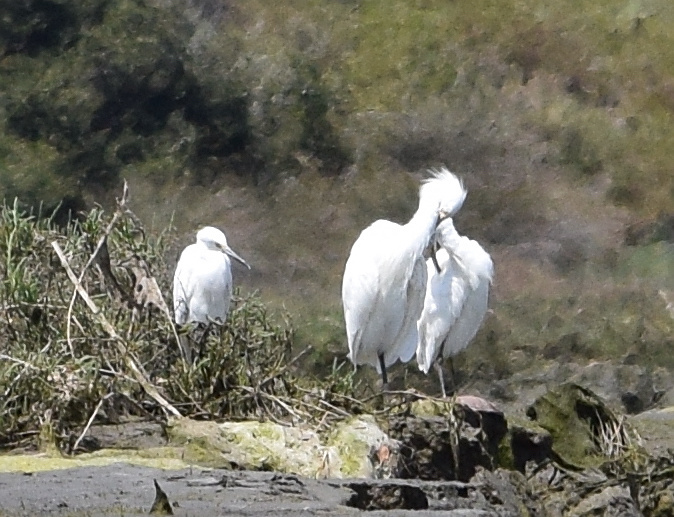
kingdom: Animalia
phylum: Chordata
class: Aves
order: Pelecaniformes
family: Ardeidae
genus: Egretta
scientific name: Egretta thula
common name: Snowy egret
